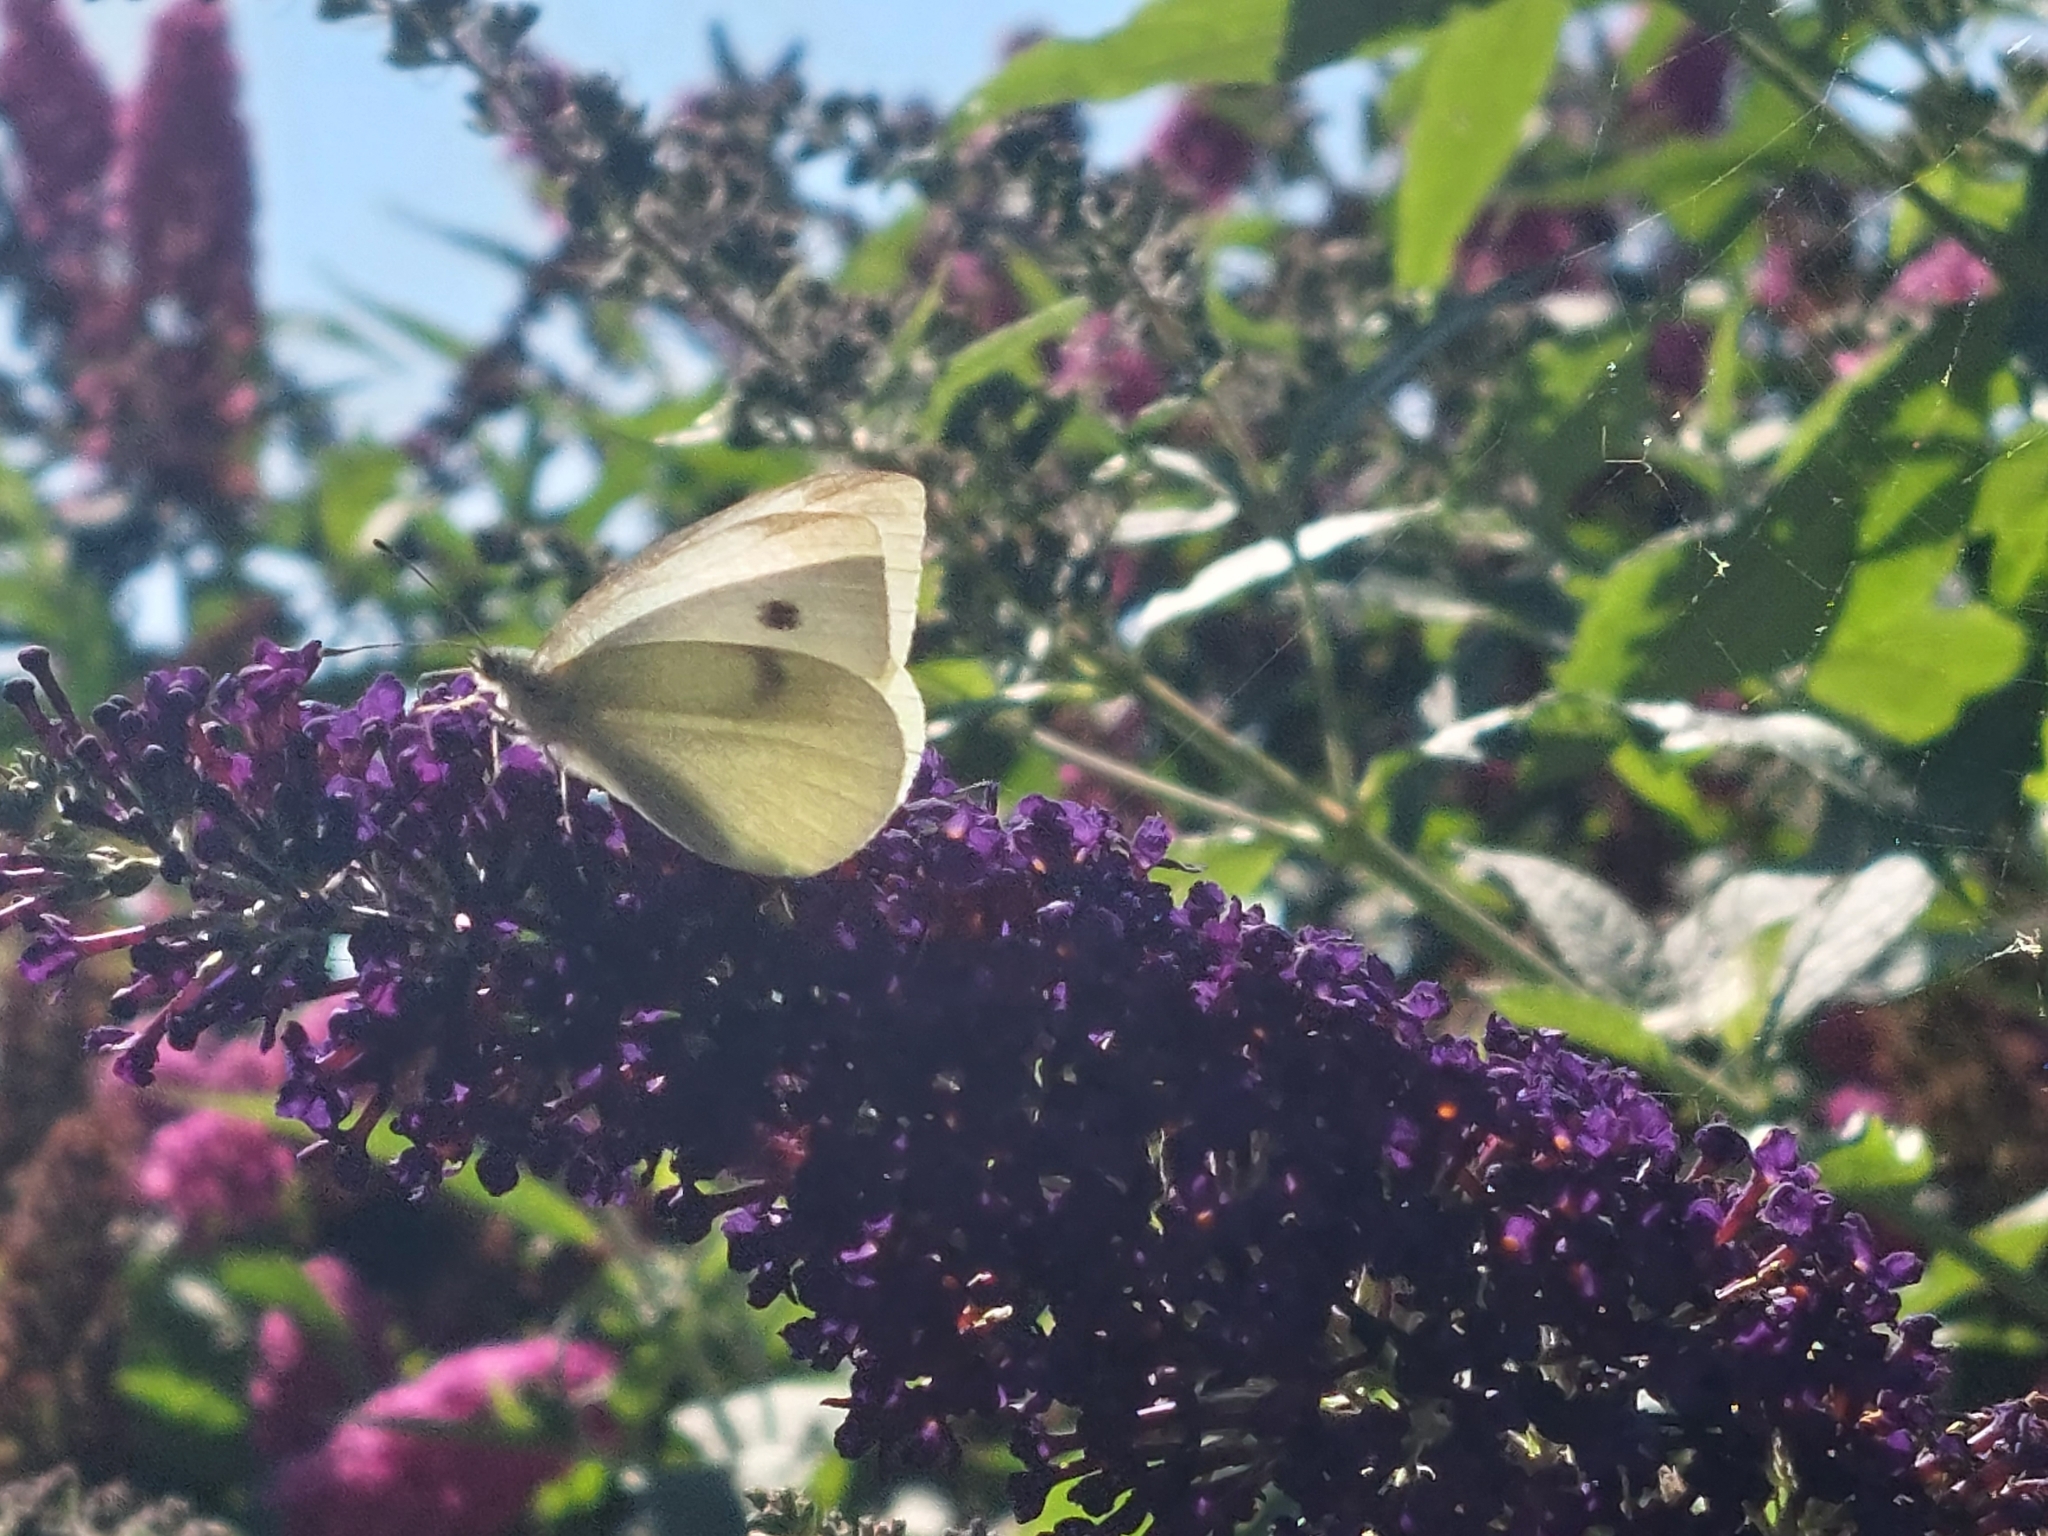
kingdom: Animalia
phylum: Arthropoda
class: Insecta
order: Lepidoptera
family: Pieridae
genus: Pieris
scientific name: Pieris rapae
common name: Small white
